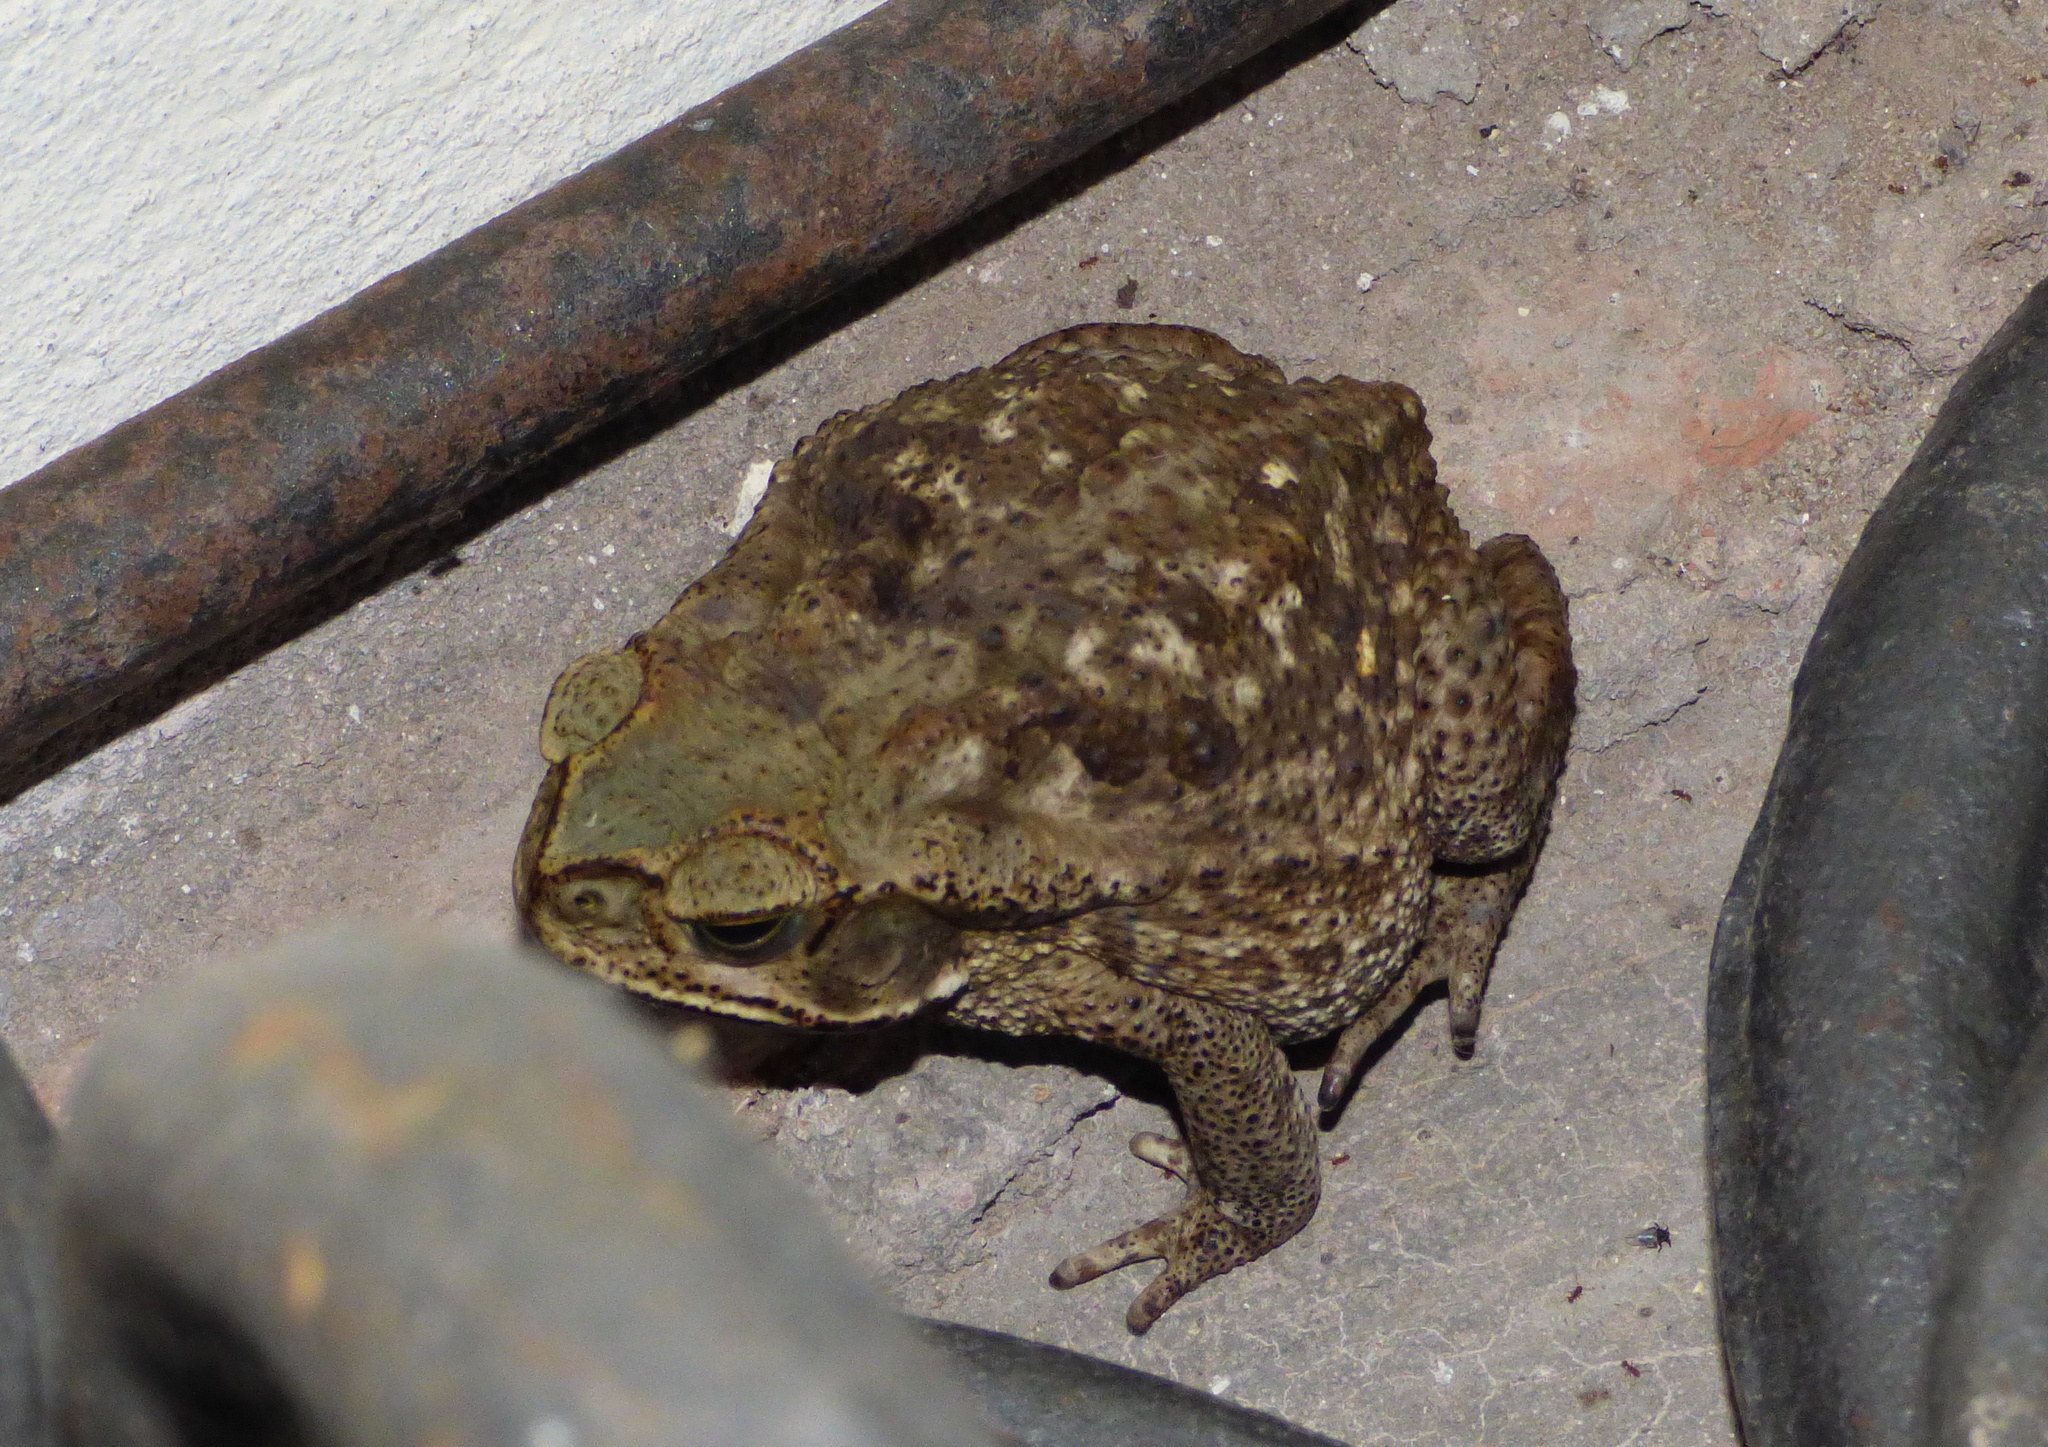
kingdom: Animalia
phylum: Chordata
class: Amphibia
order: Anura
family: Bufonidae
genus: Rhinella
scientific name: Rhinella diptycha
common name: Cope's toad
